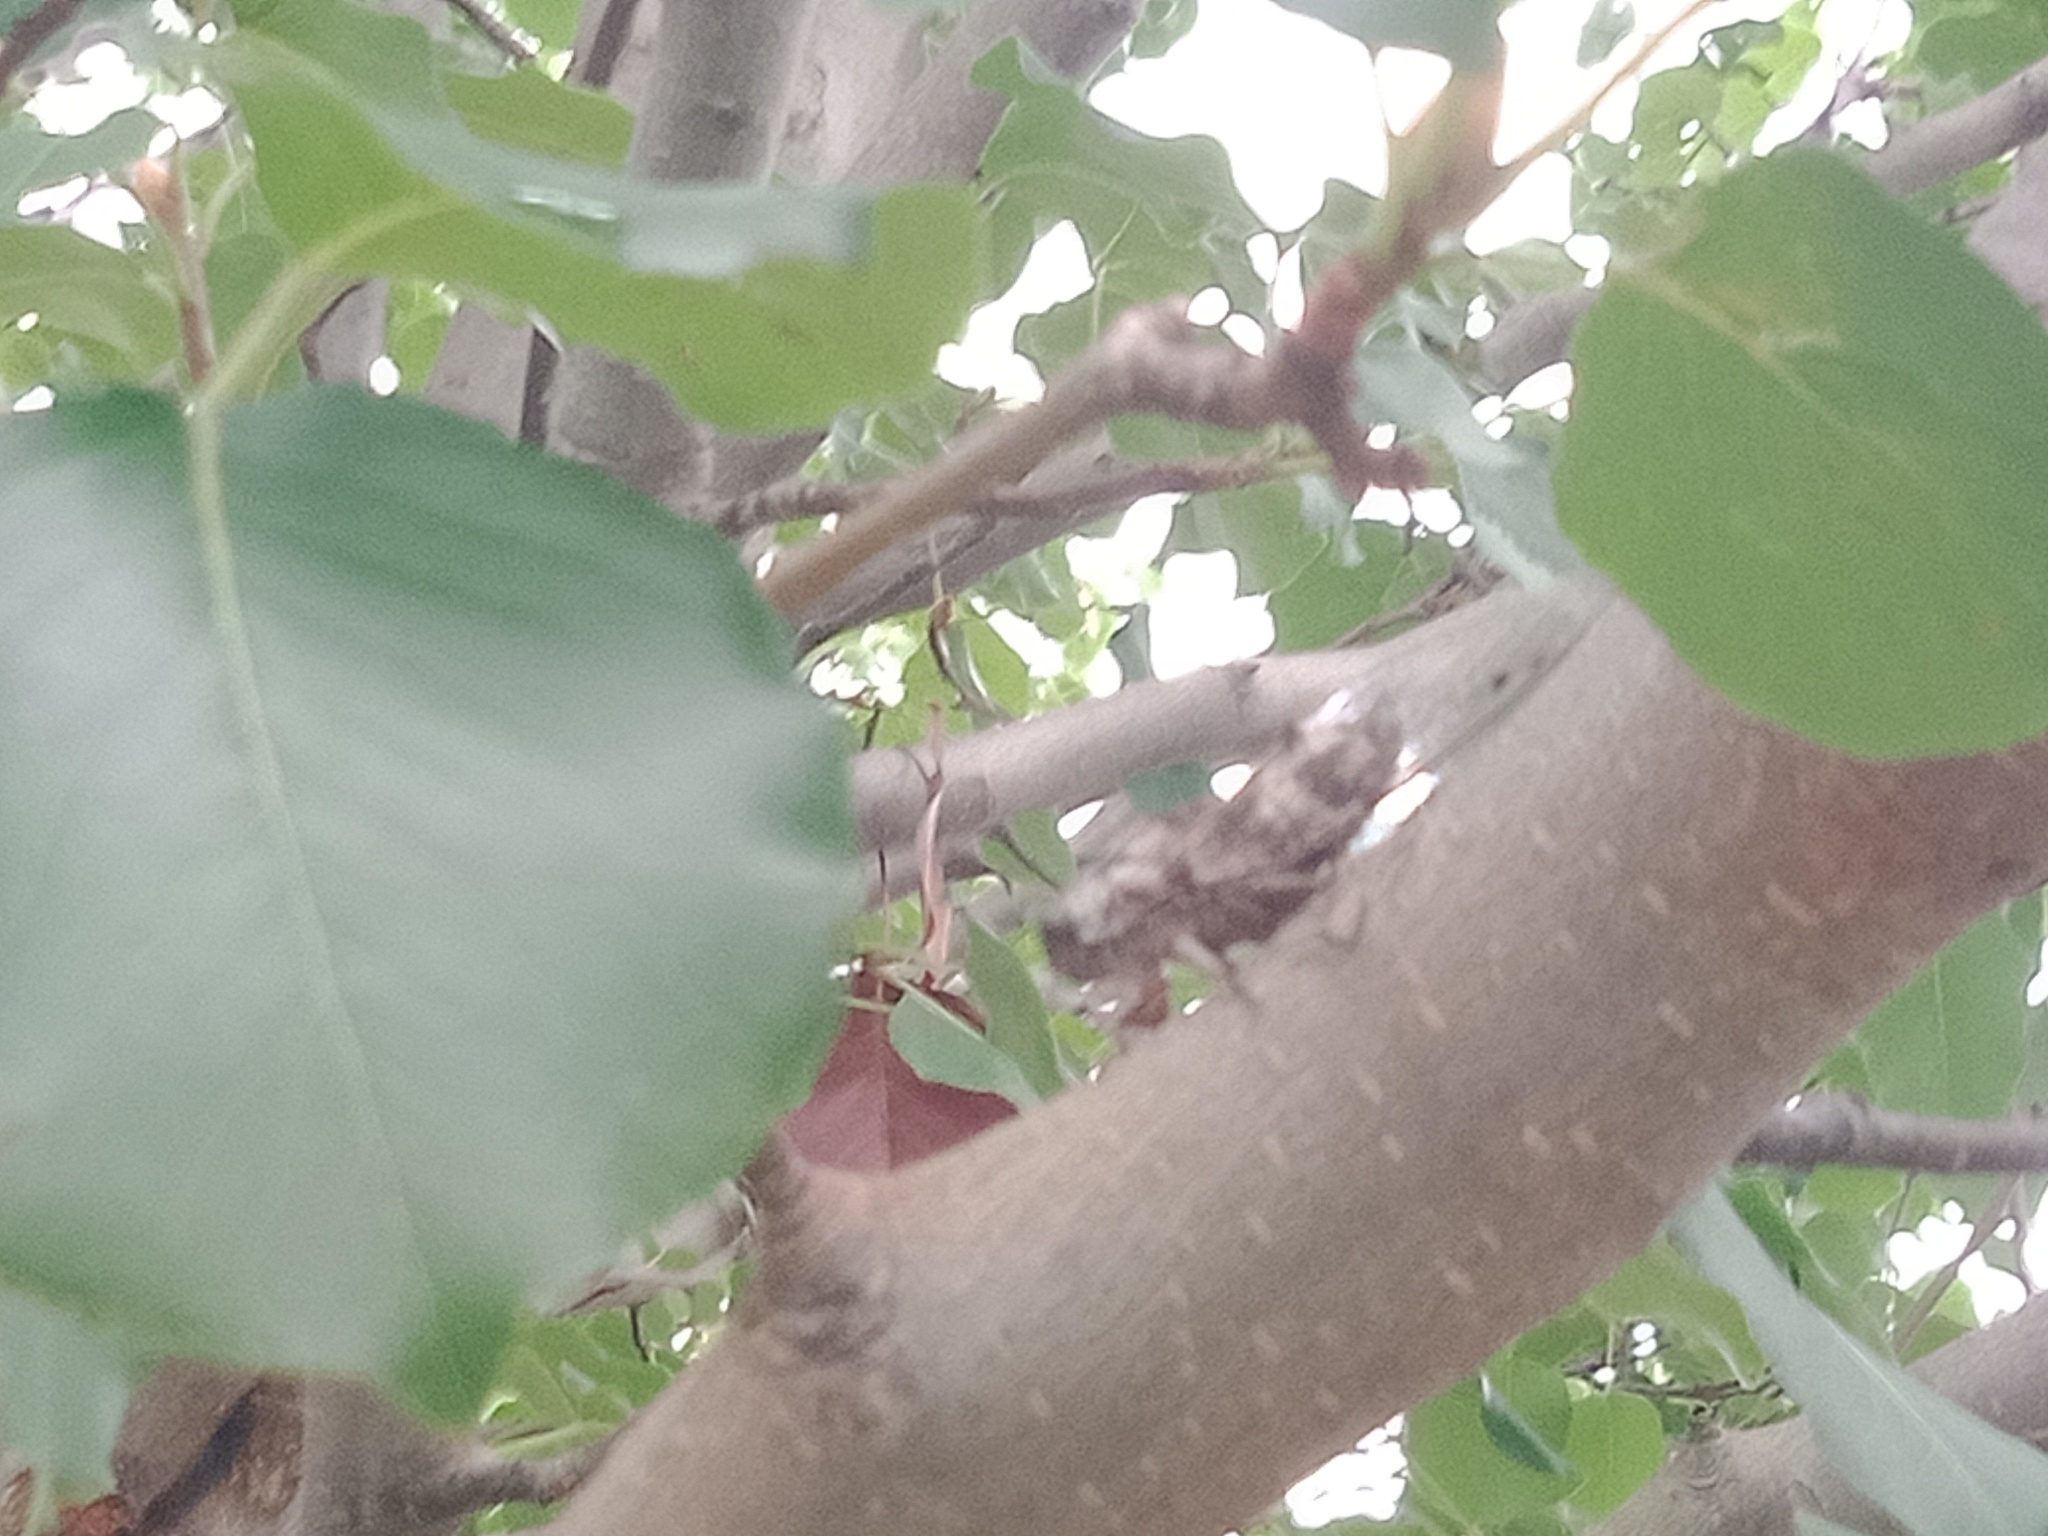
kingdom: Animalia
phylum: Arthropoda
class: Insecta
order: Hemiptera
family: Cicadidae
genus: Aleeta
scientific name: Aleeta curvicosta
